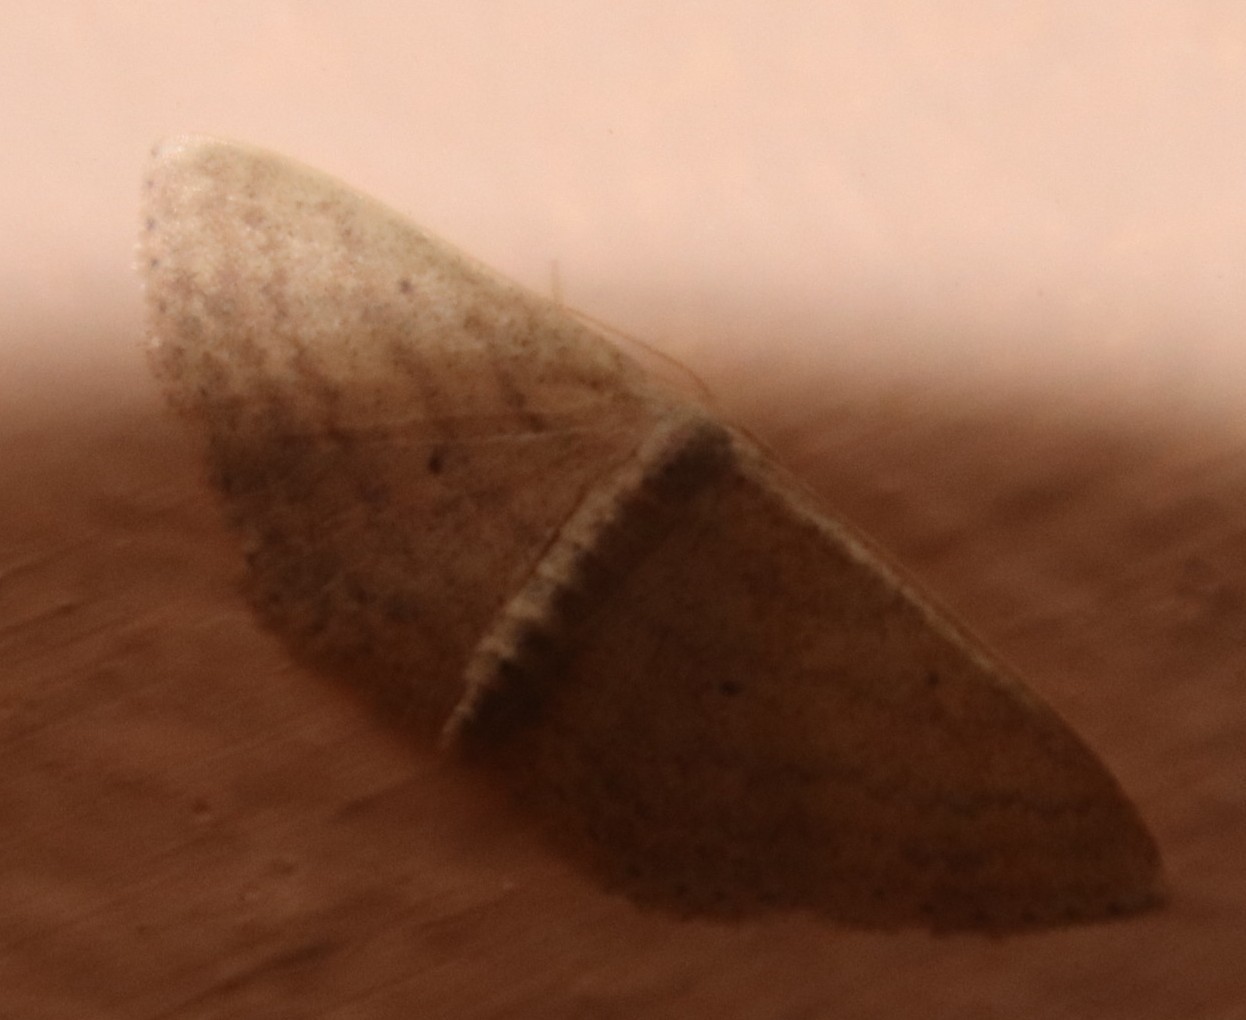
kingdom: Animalia
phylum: Arthropoda
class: Insecta
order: Lepidoptera
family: Geometridae
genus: Scopula
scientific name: Scopula lactaria
